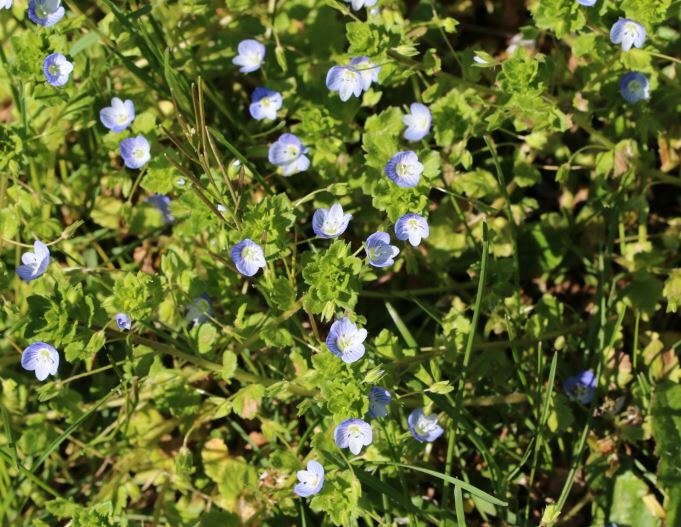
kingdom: Plantae
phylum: Tracheophyta
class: Magnoliopsida
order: Lamiales
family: Plantaginaceae
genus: Veronica
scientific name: Veronica persica
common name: Common field-speedwell
